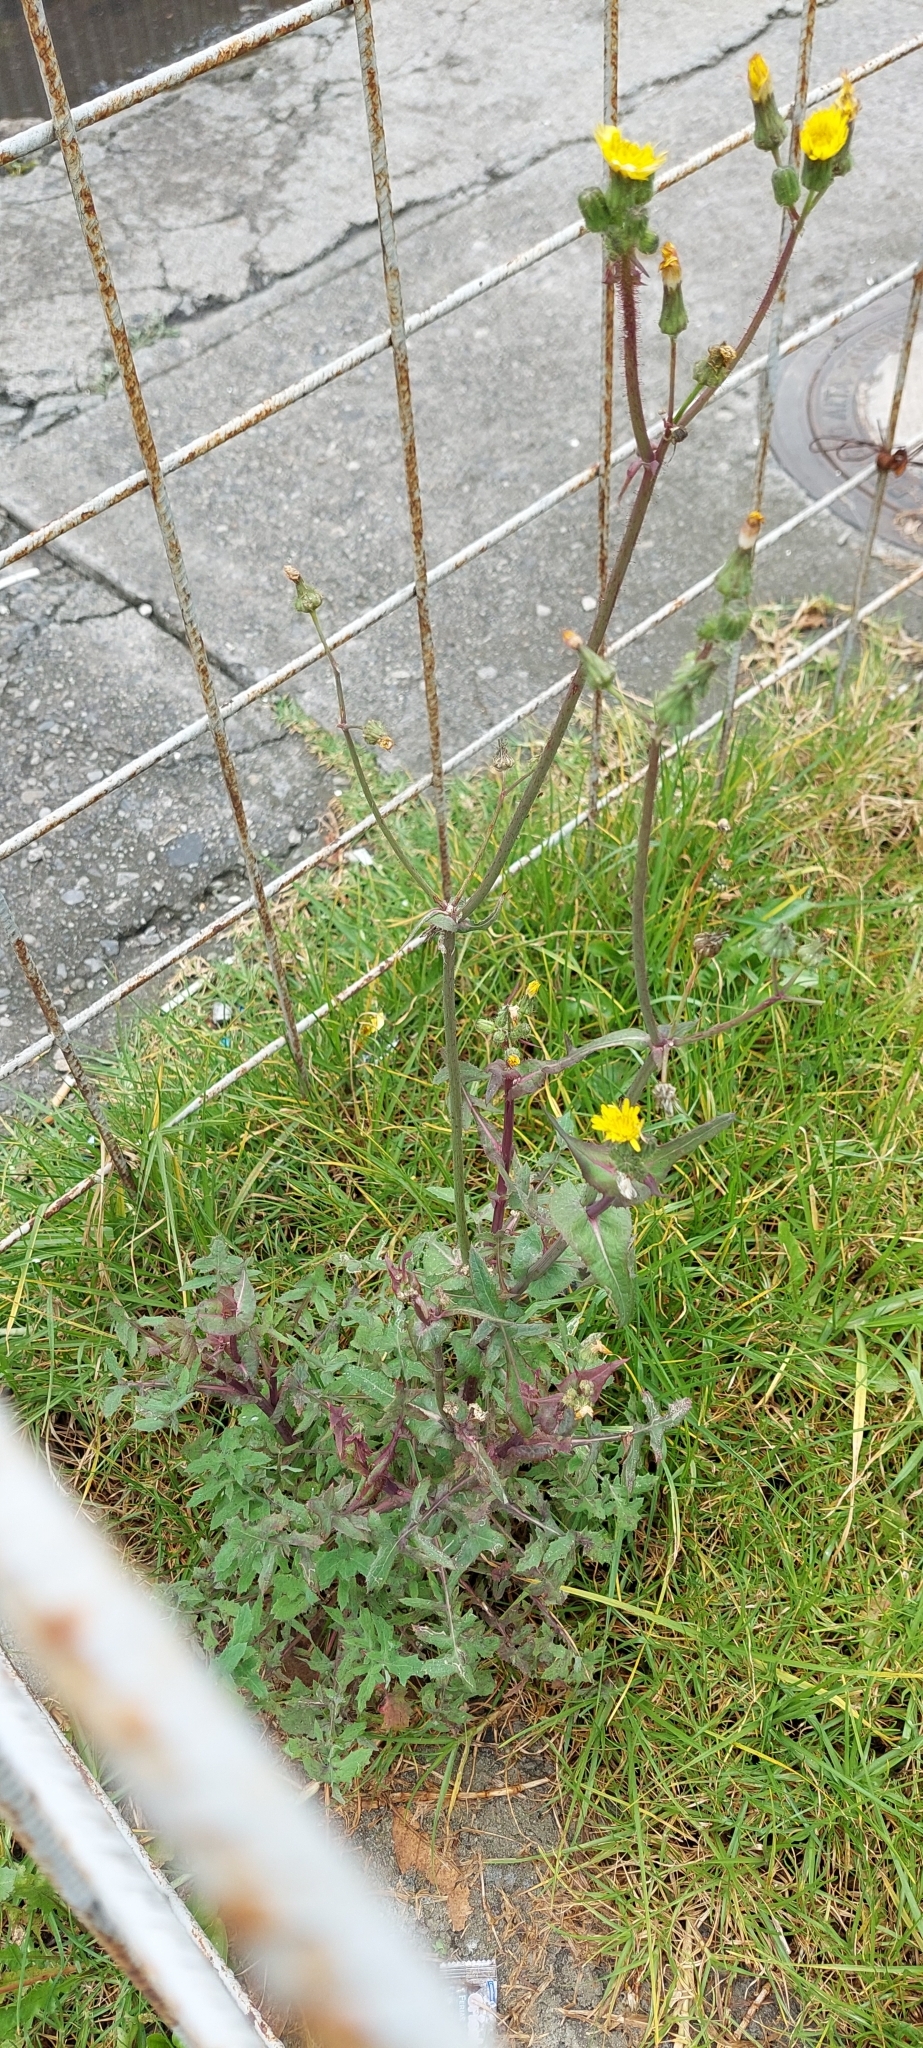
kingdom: Plantae
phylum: Tracheophyta
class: Magnoliopsida
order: Asterales
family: Asteraceae
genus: Sonchus
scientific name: Sonchus oleraceus
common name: Common sowthistle
